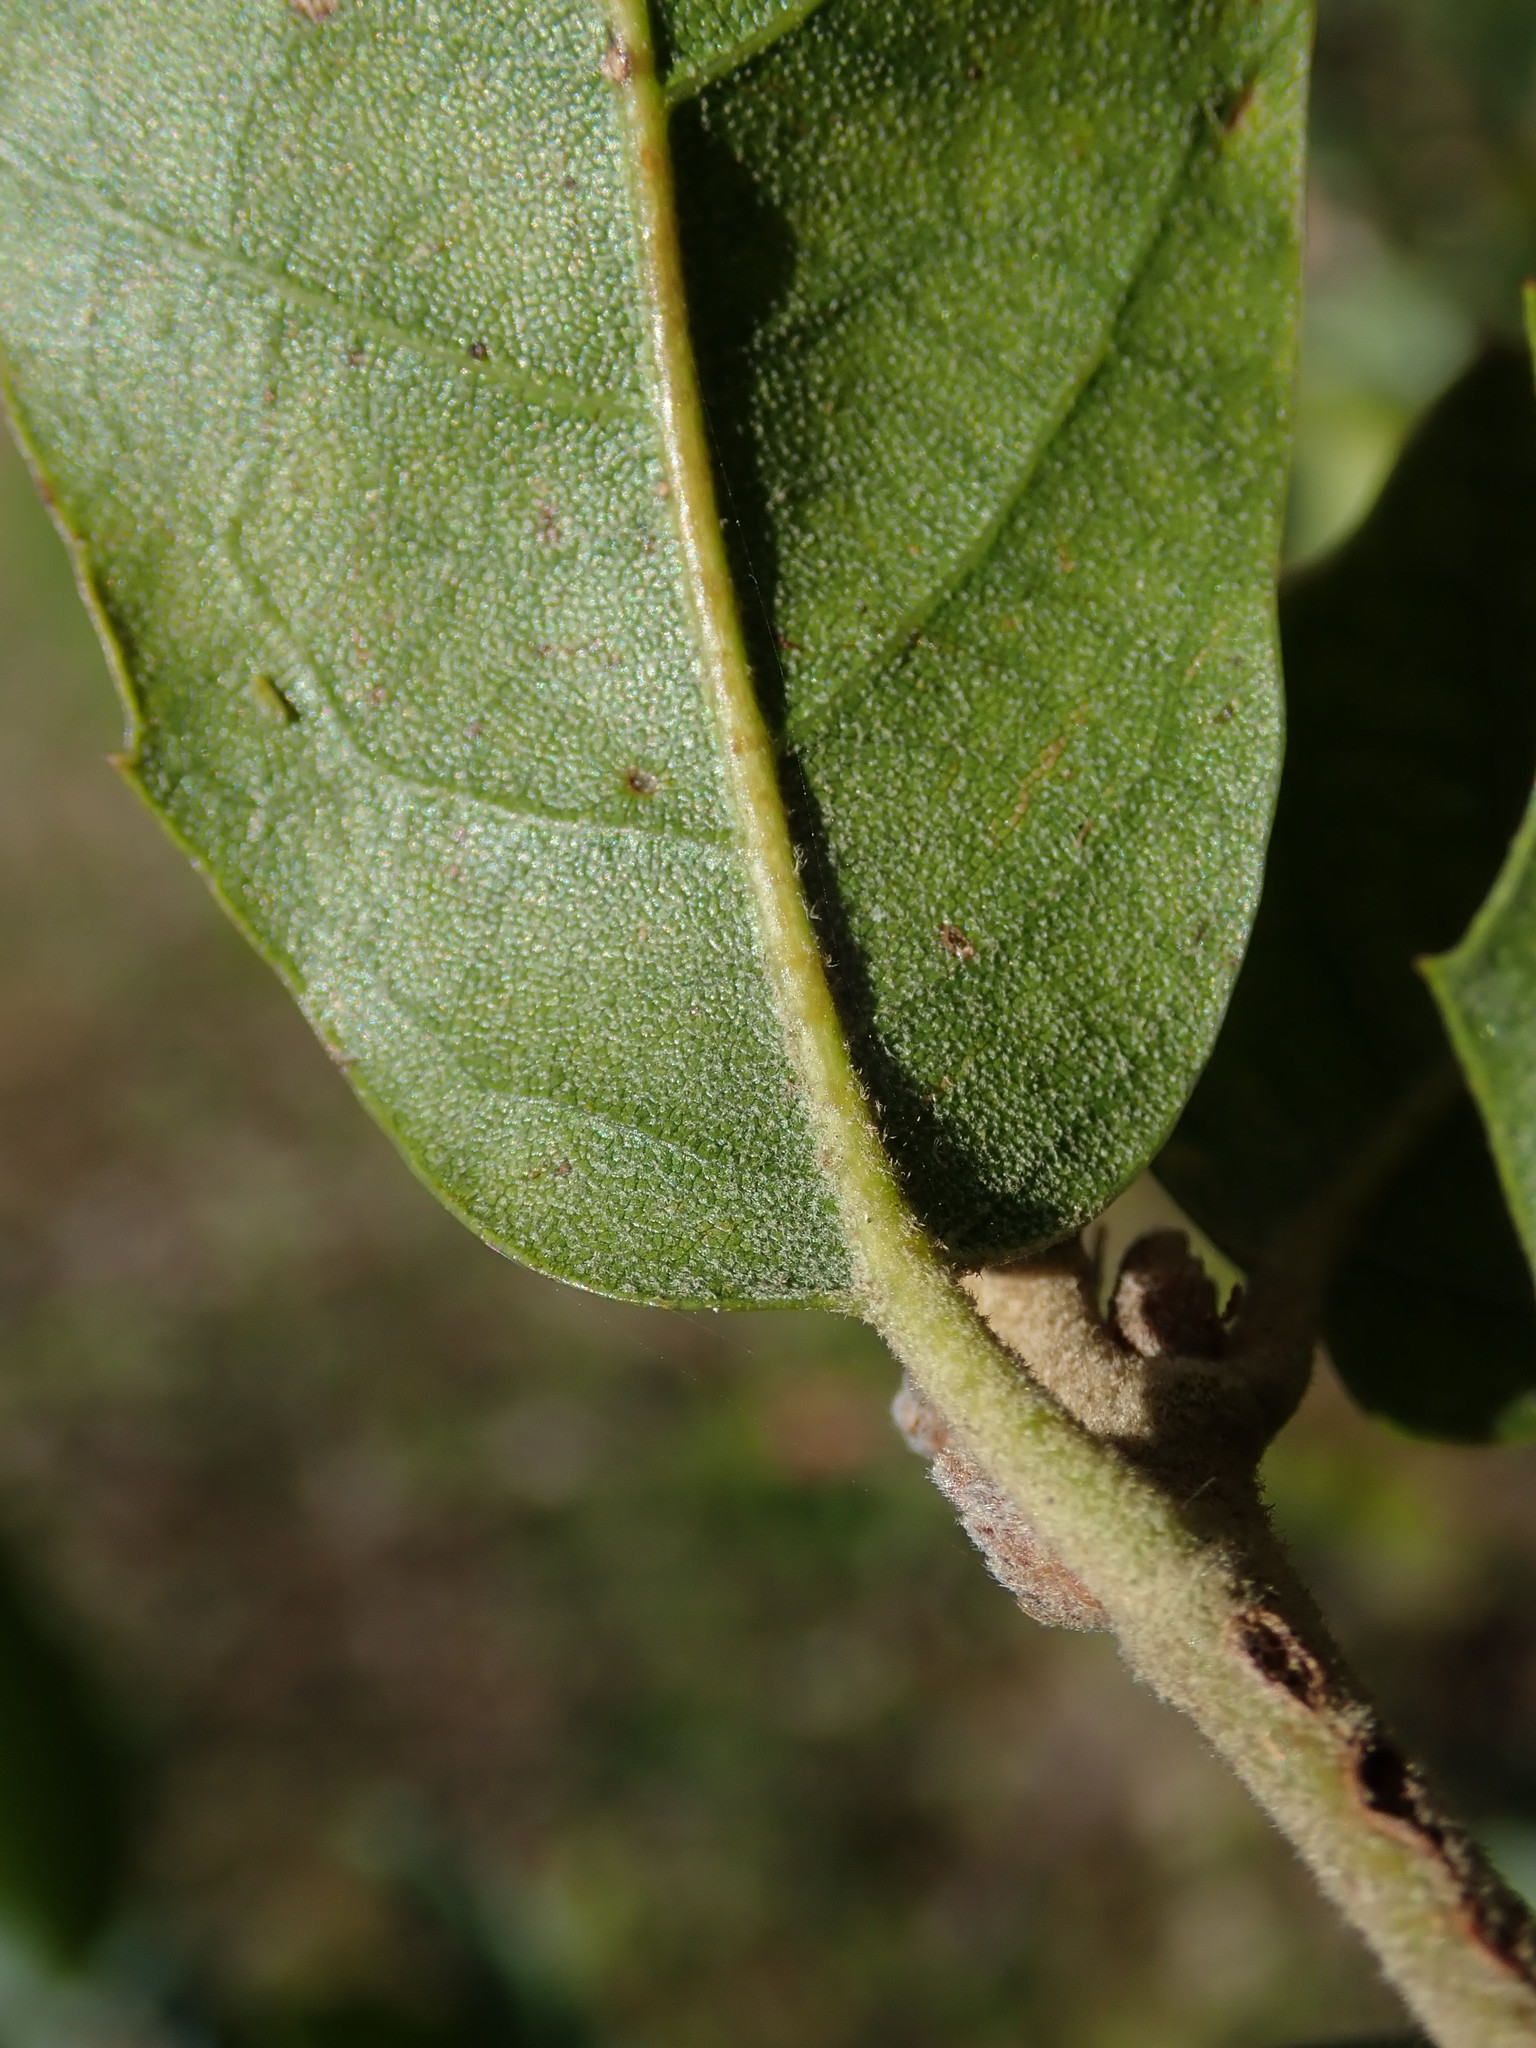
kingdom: Plantae
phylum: Tracheophyta
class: Magnoliopsida
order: Fagales
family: Fagaceae
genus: Quercus
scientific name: Quercus ilex
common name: Evergreen oak
